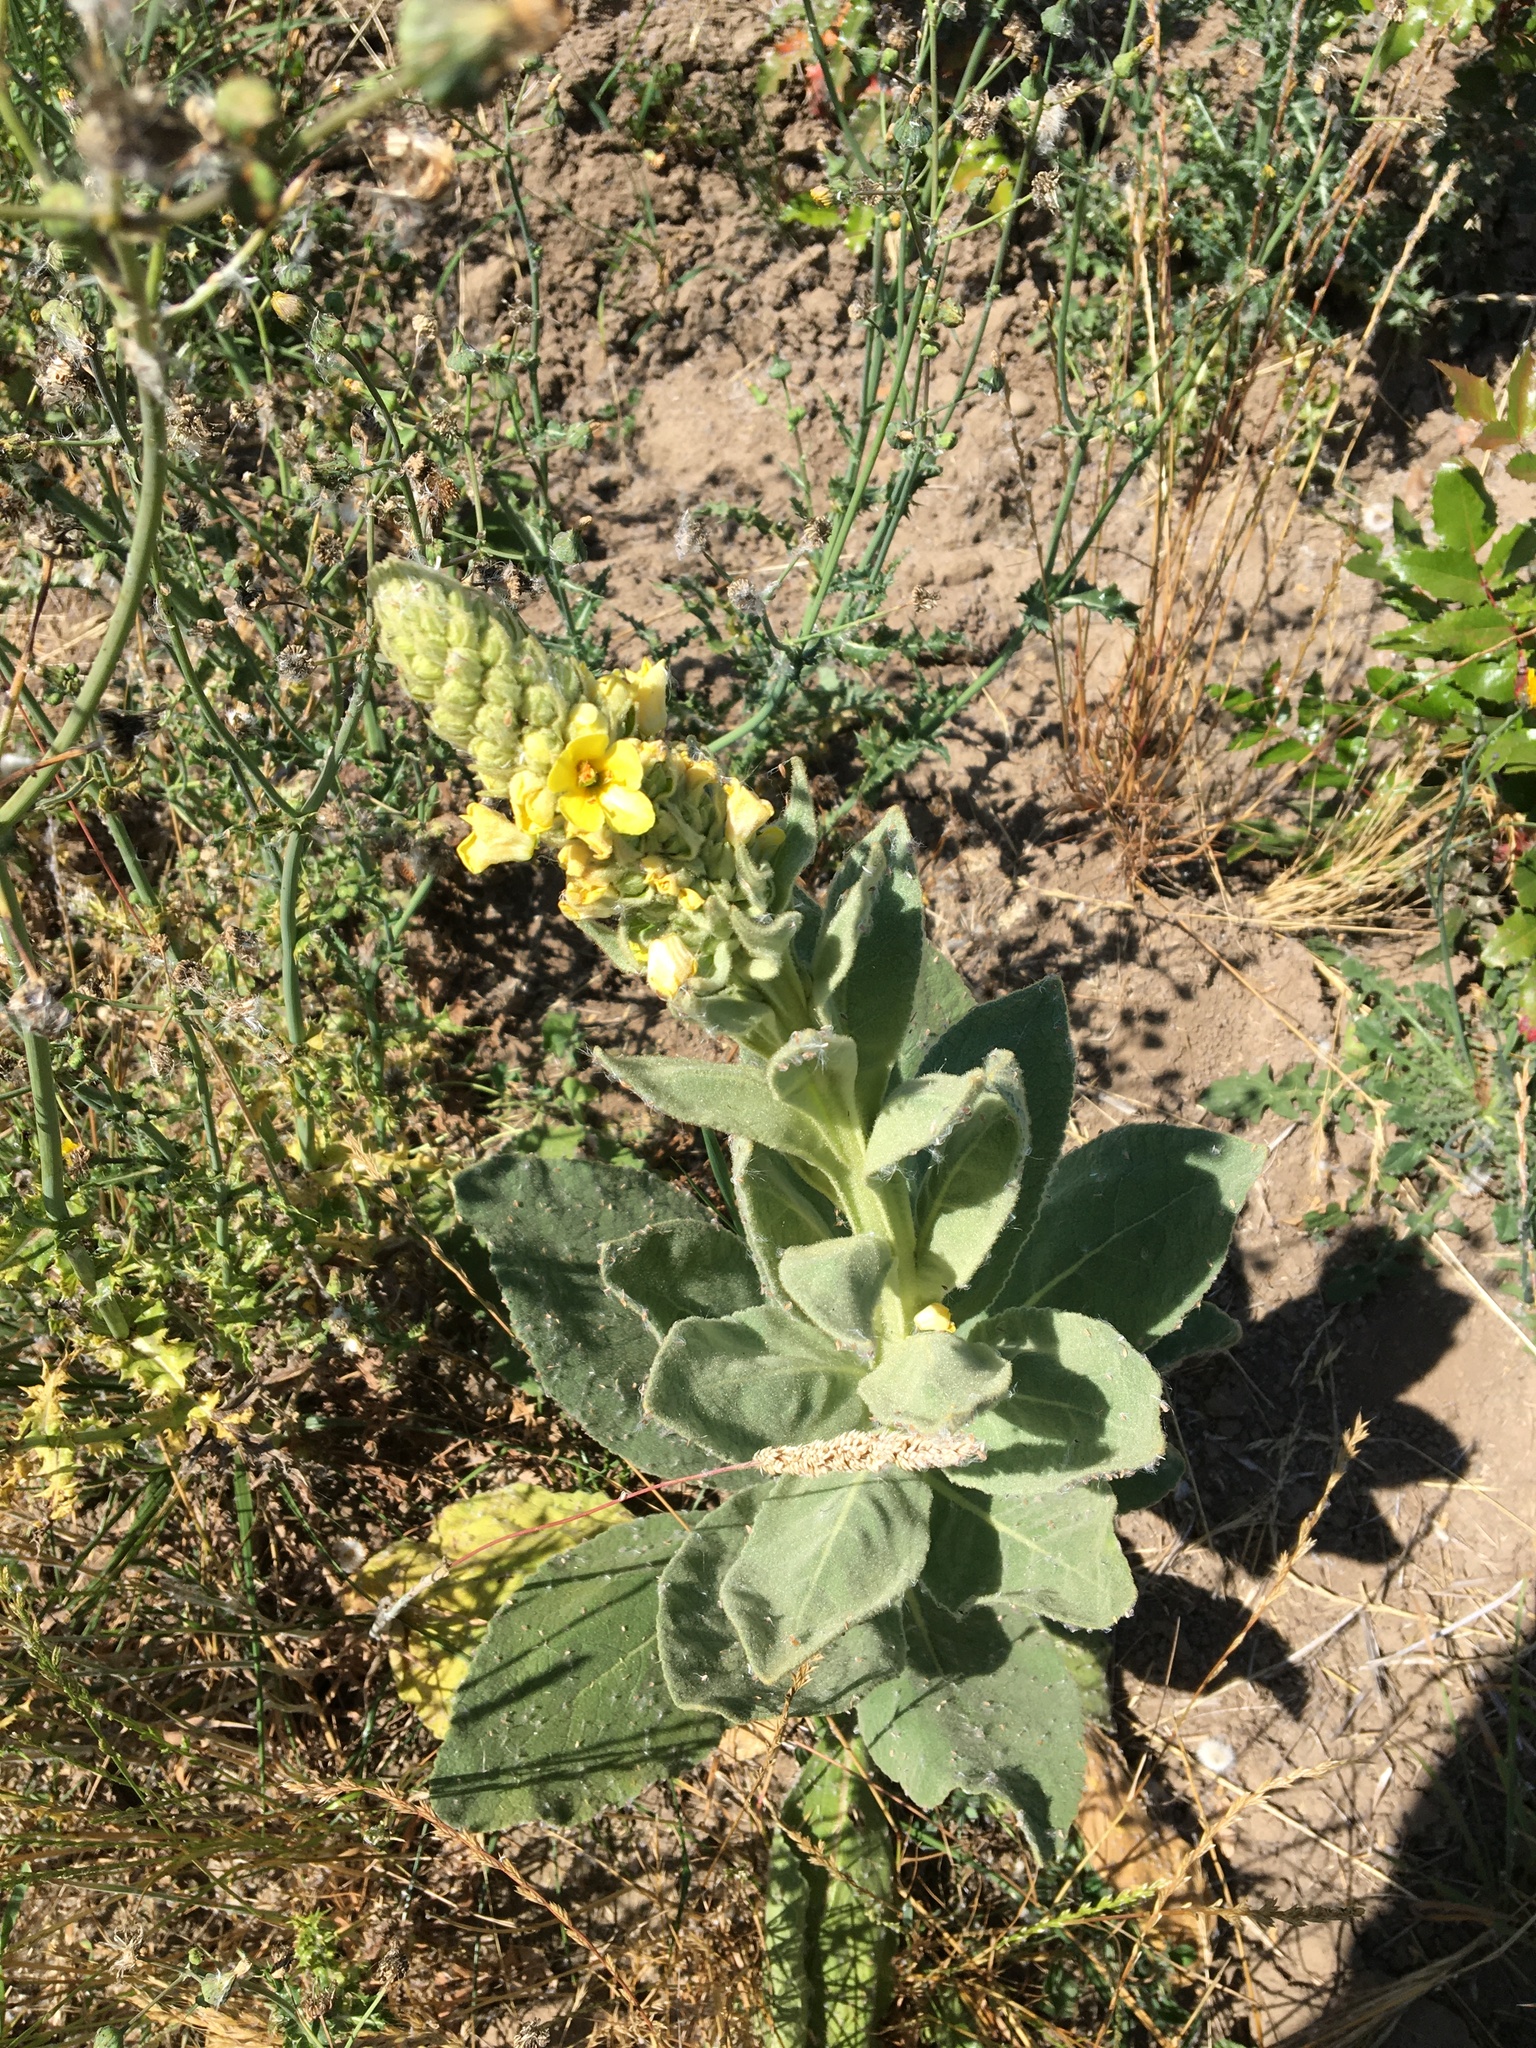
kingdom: Plantae
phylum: Tracheophyta
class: Magnoliopsida
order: Lamiales
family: Scrophulariaceae
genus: Verbascum
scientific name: Verbascum thapsus
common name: Common mullein
